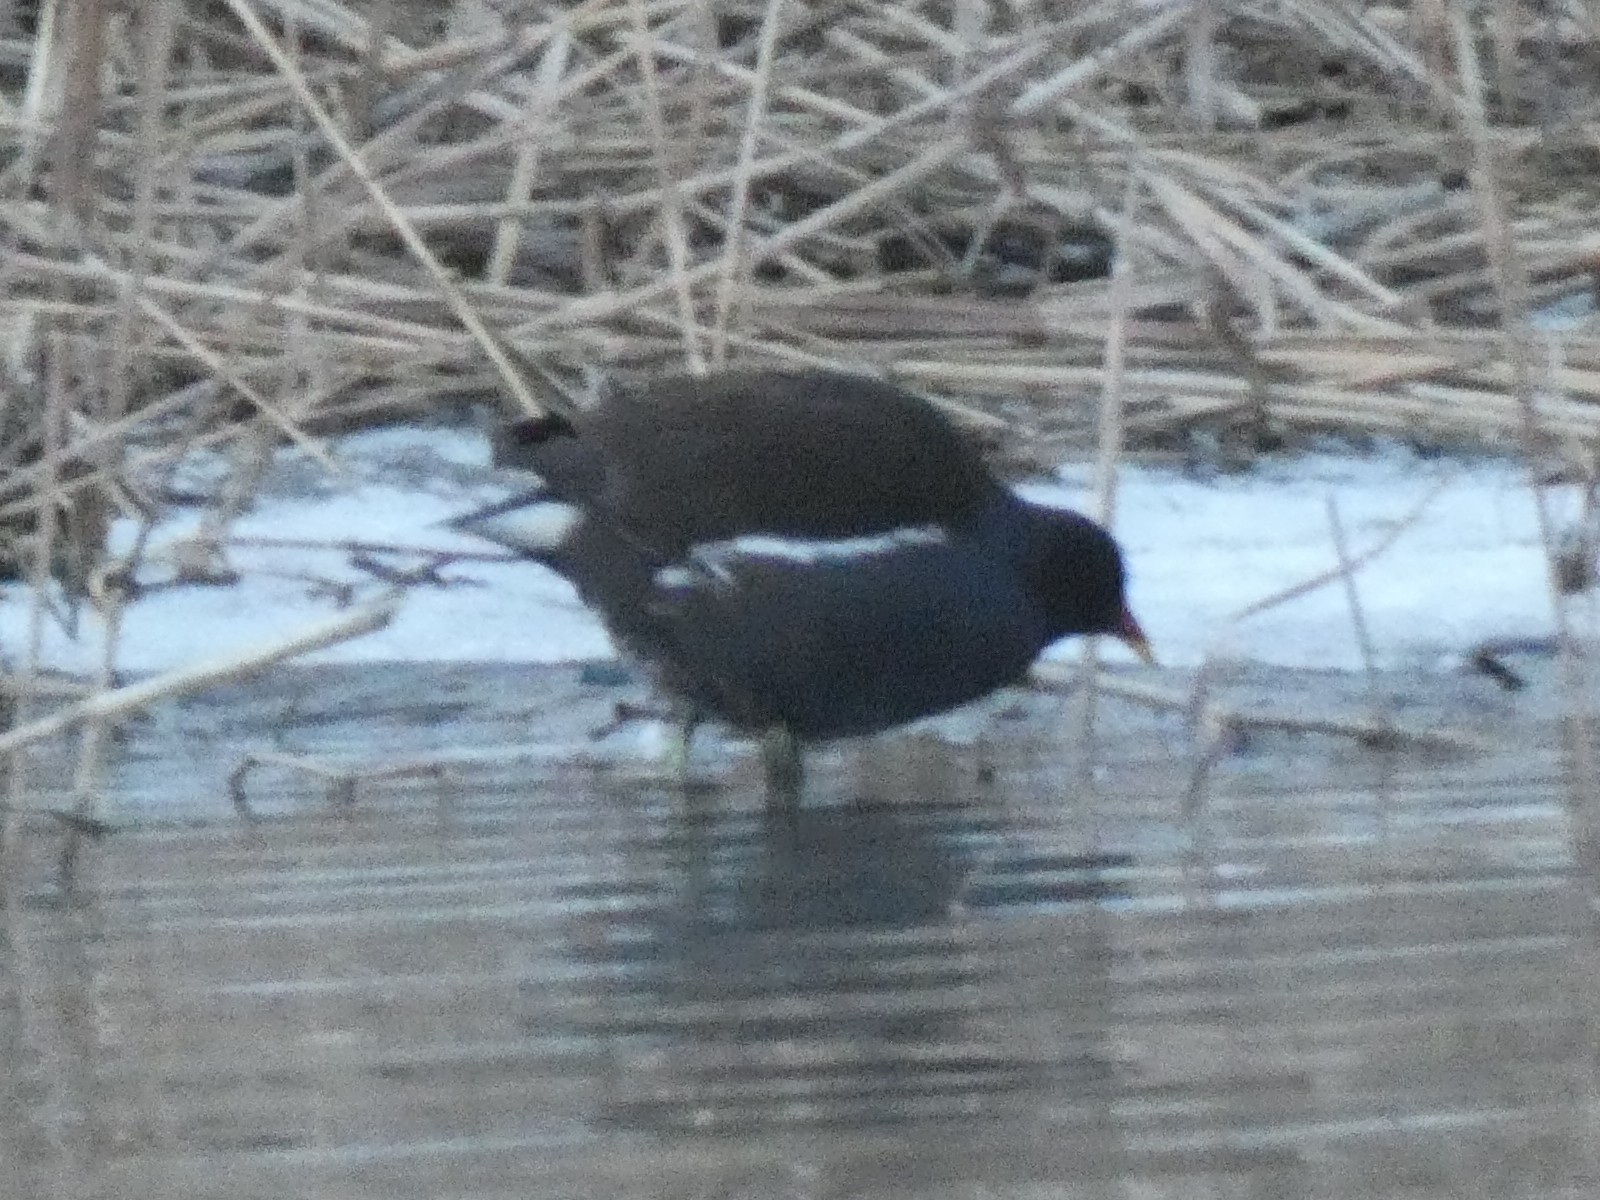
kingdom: Animalia
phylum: Chordata
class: Aves
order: Gruiformes
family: Rallidae
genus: Gallinula
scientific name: Gallinula chloropus
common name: Common moorhen
